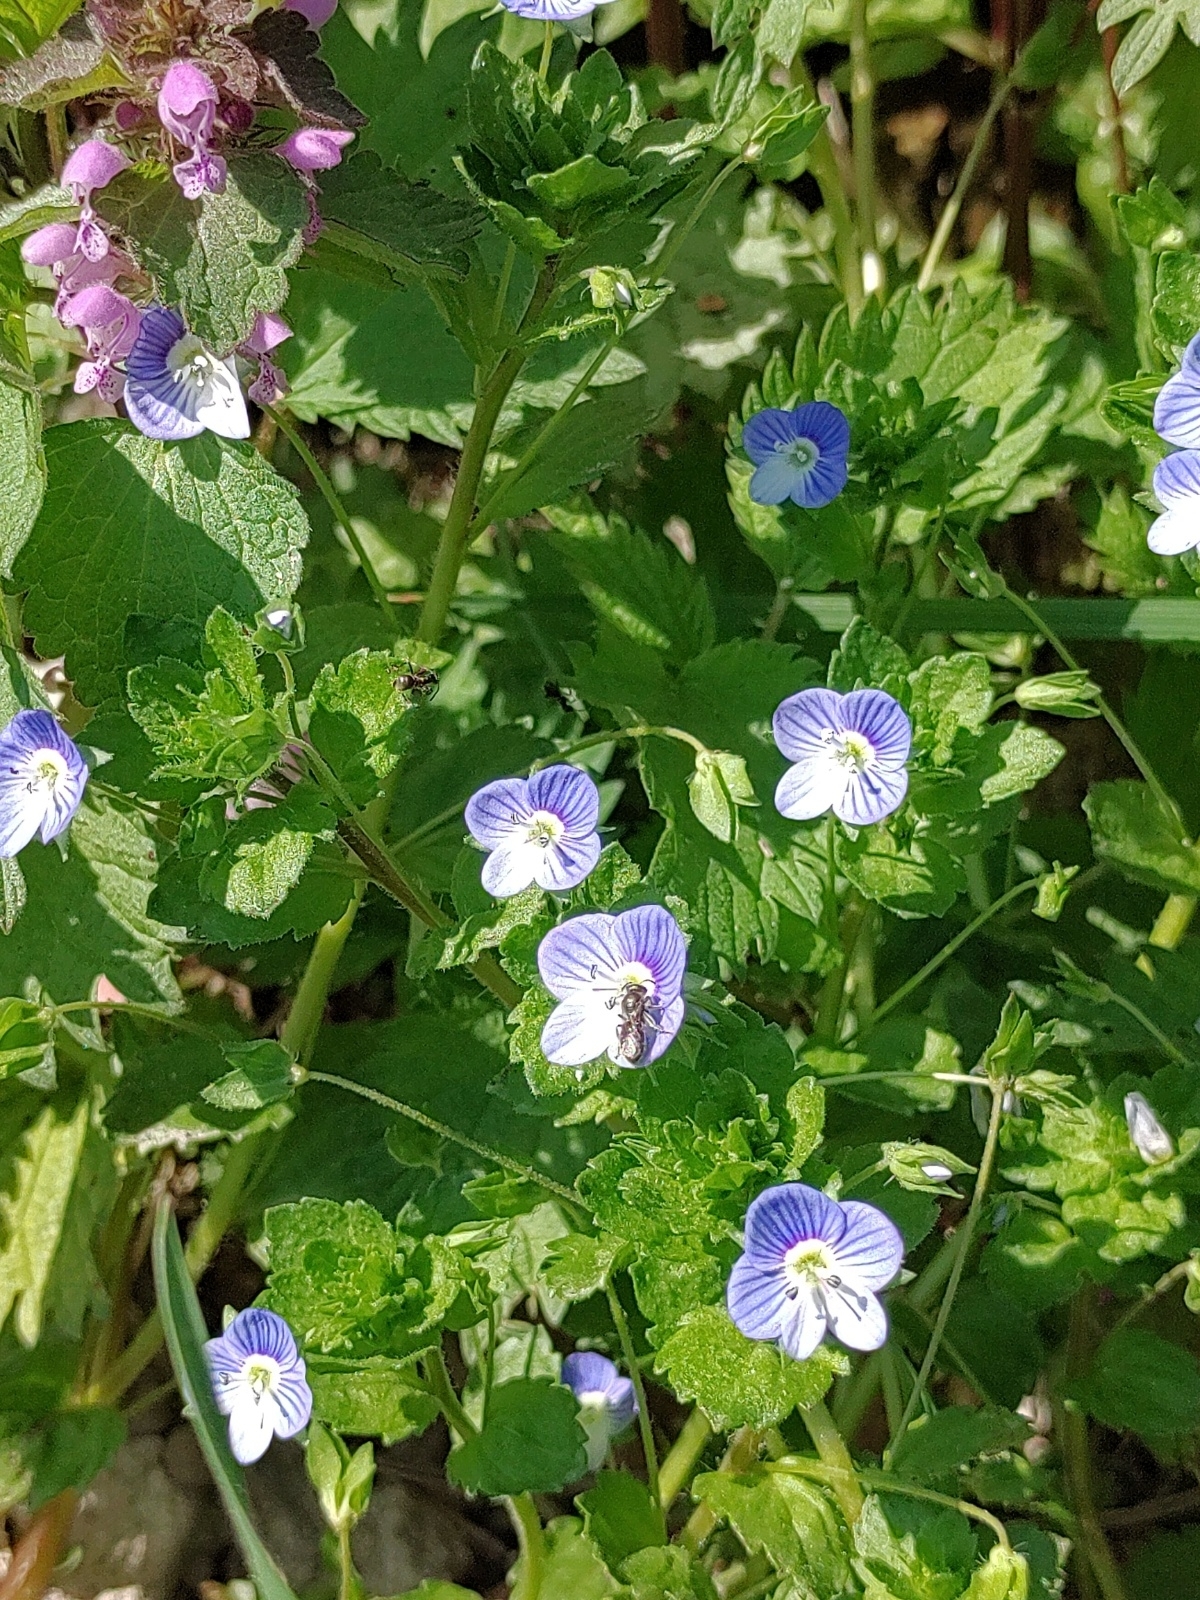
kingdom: Plantae
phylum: Tracheophyta
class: Magnoliopsida
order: Lamiales
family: Plantaginaceae
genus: Veronica
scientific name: Veronica persica
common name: Common field-speedwell
